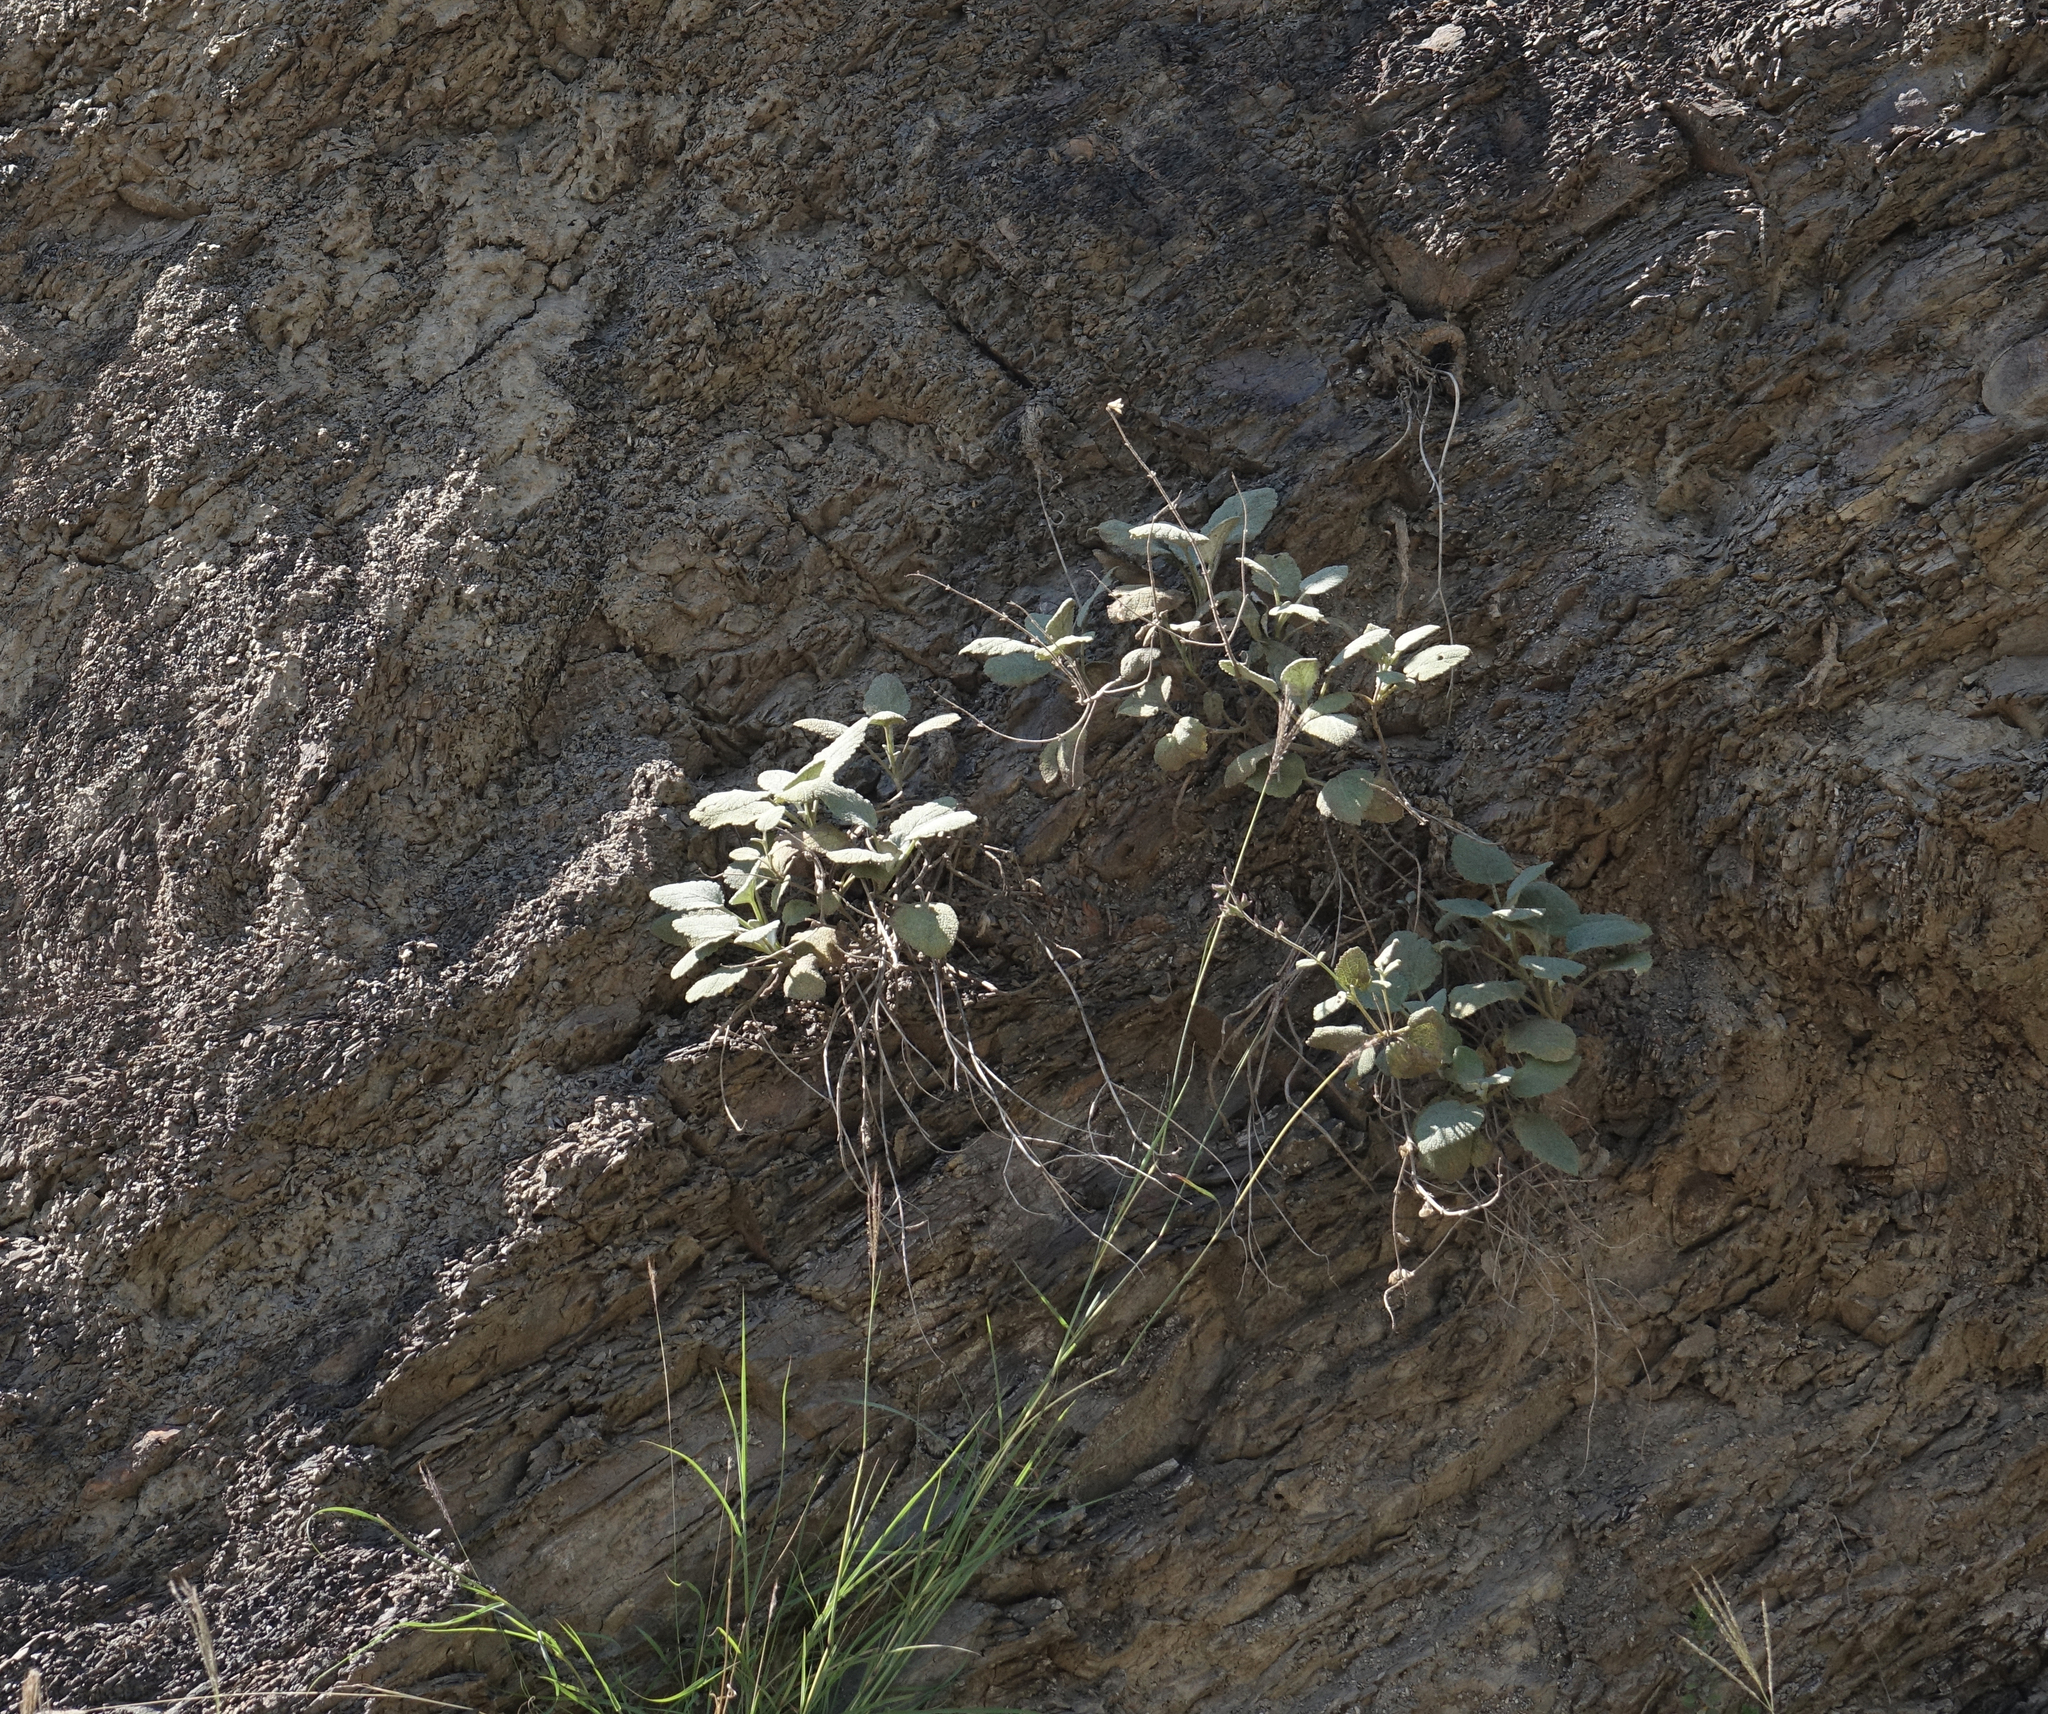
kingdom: Plantae
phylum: Tracheophyta
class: Magnoliopsida
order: Lamiales
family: Lamiaceae
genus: Salvia
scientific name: Salvia beckeri
